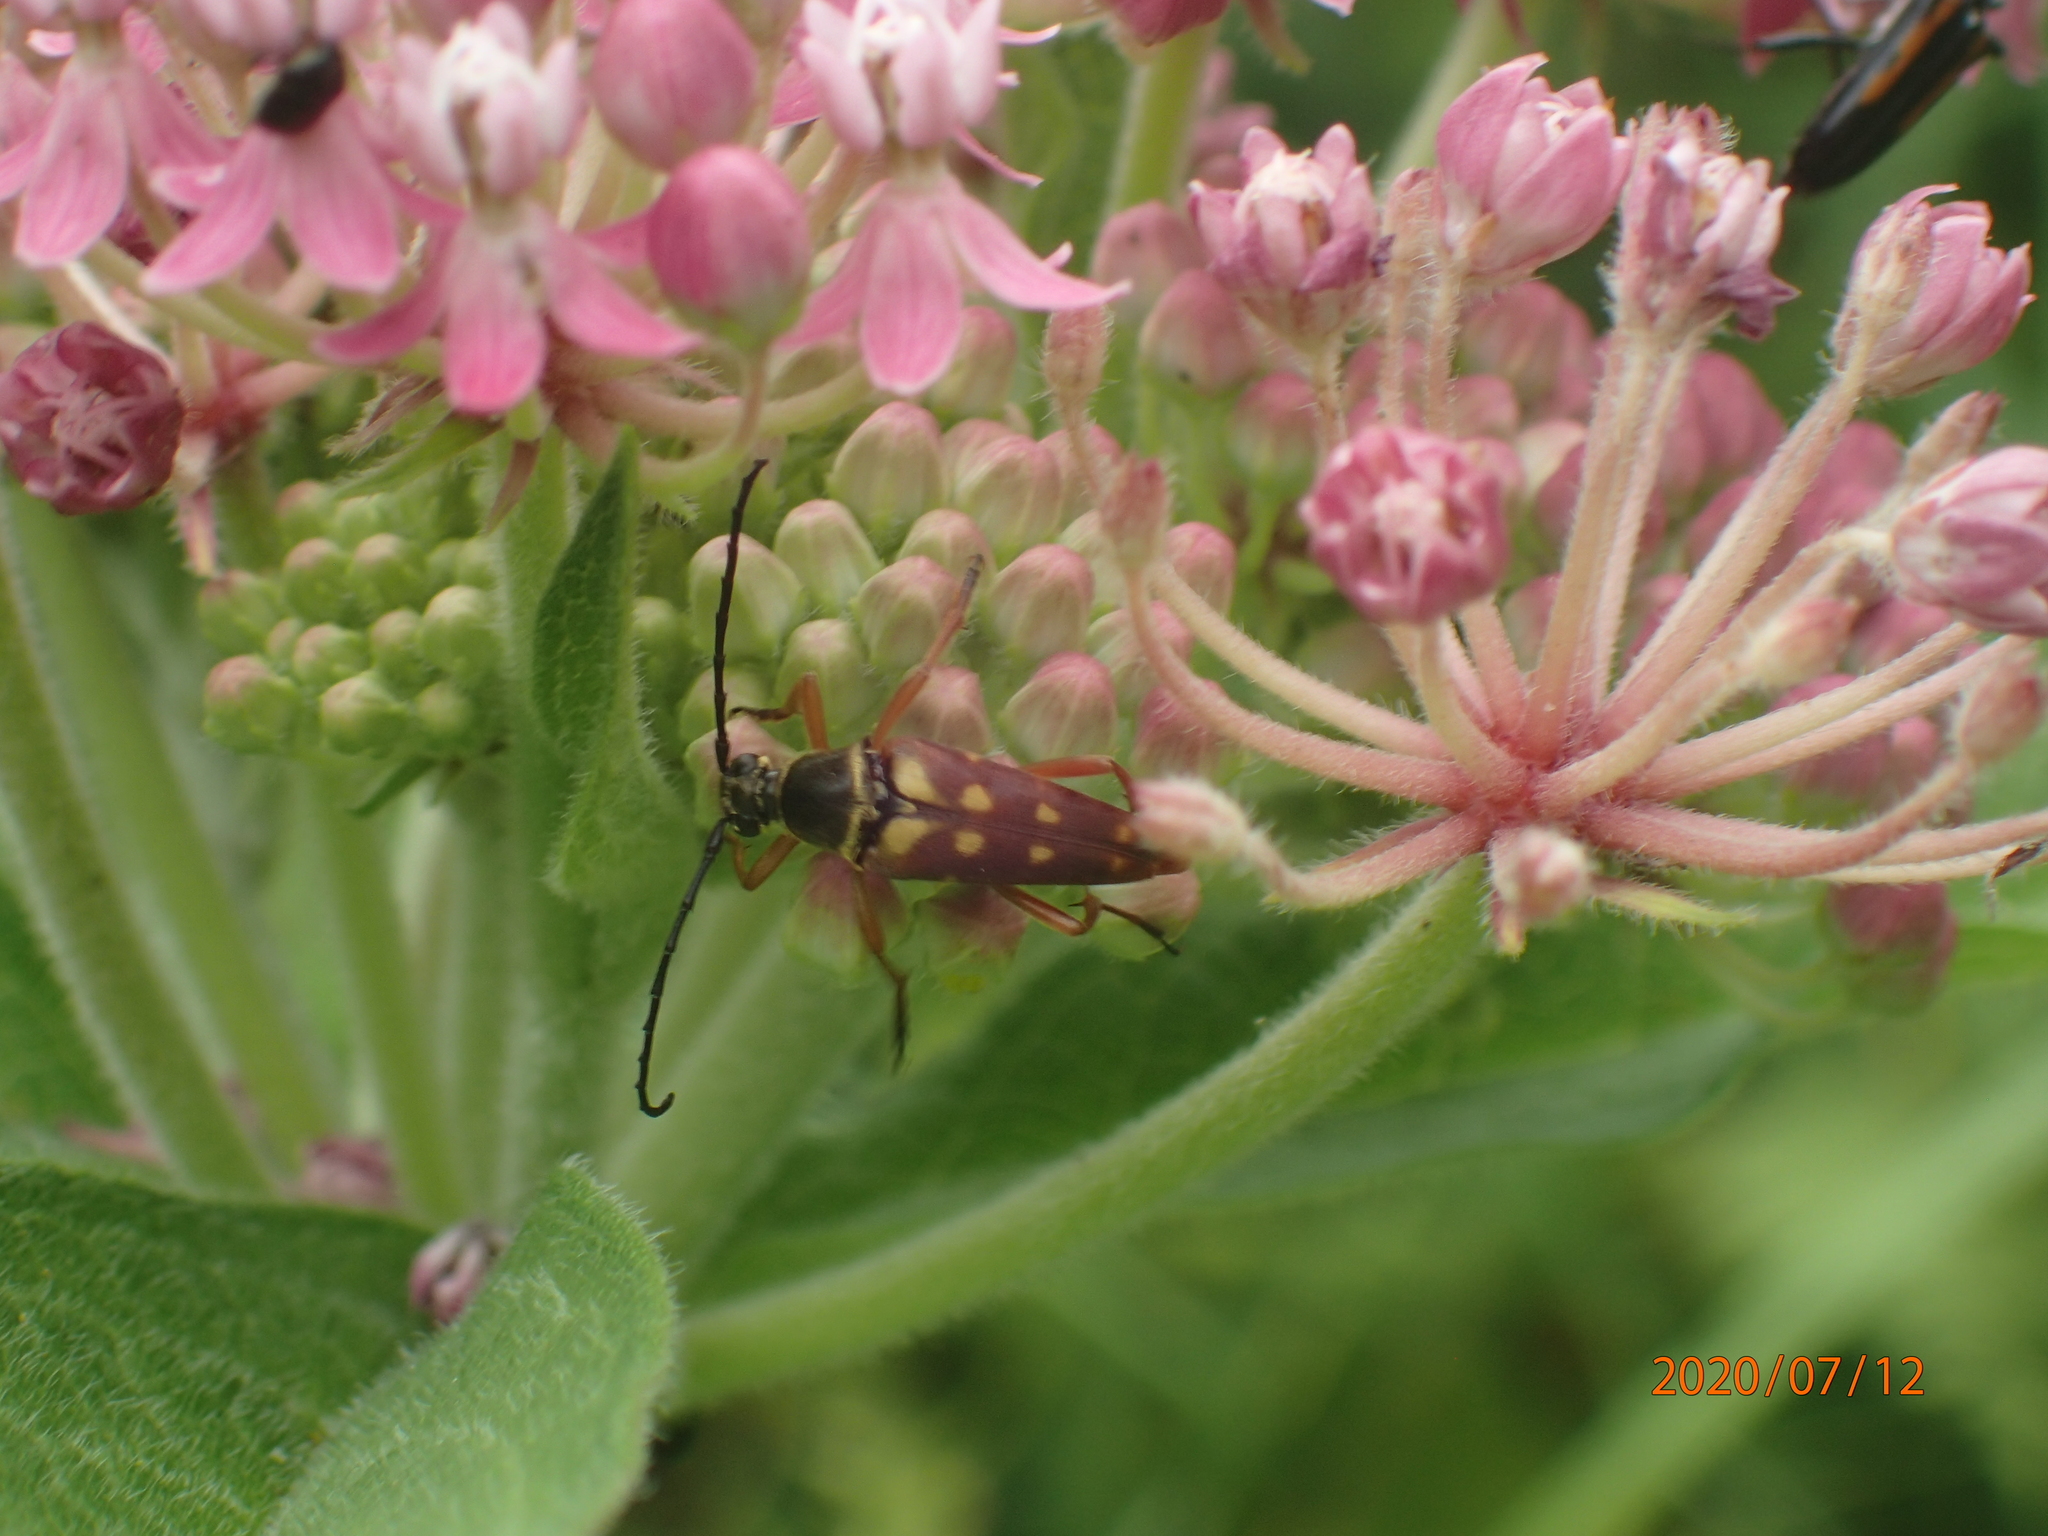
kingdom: Animalia
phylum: Arthropoda
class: Insecta
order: Coleoptera
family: Cerambycidae
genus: Typocerus
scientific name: Typocerus velutinus
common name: Banded longhorn beetle
